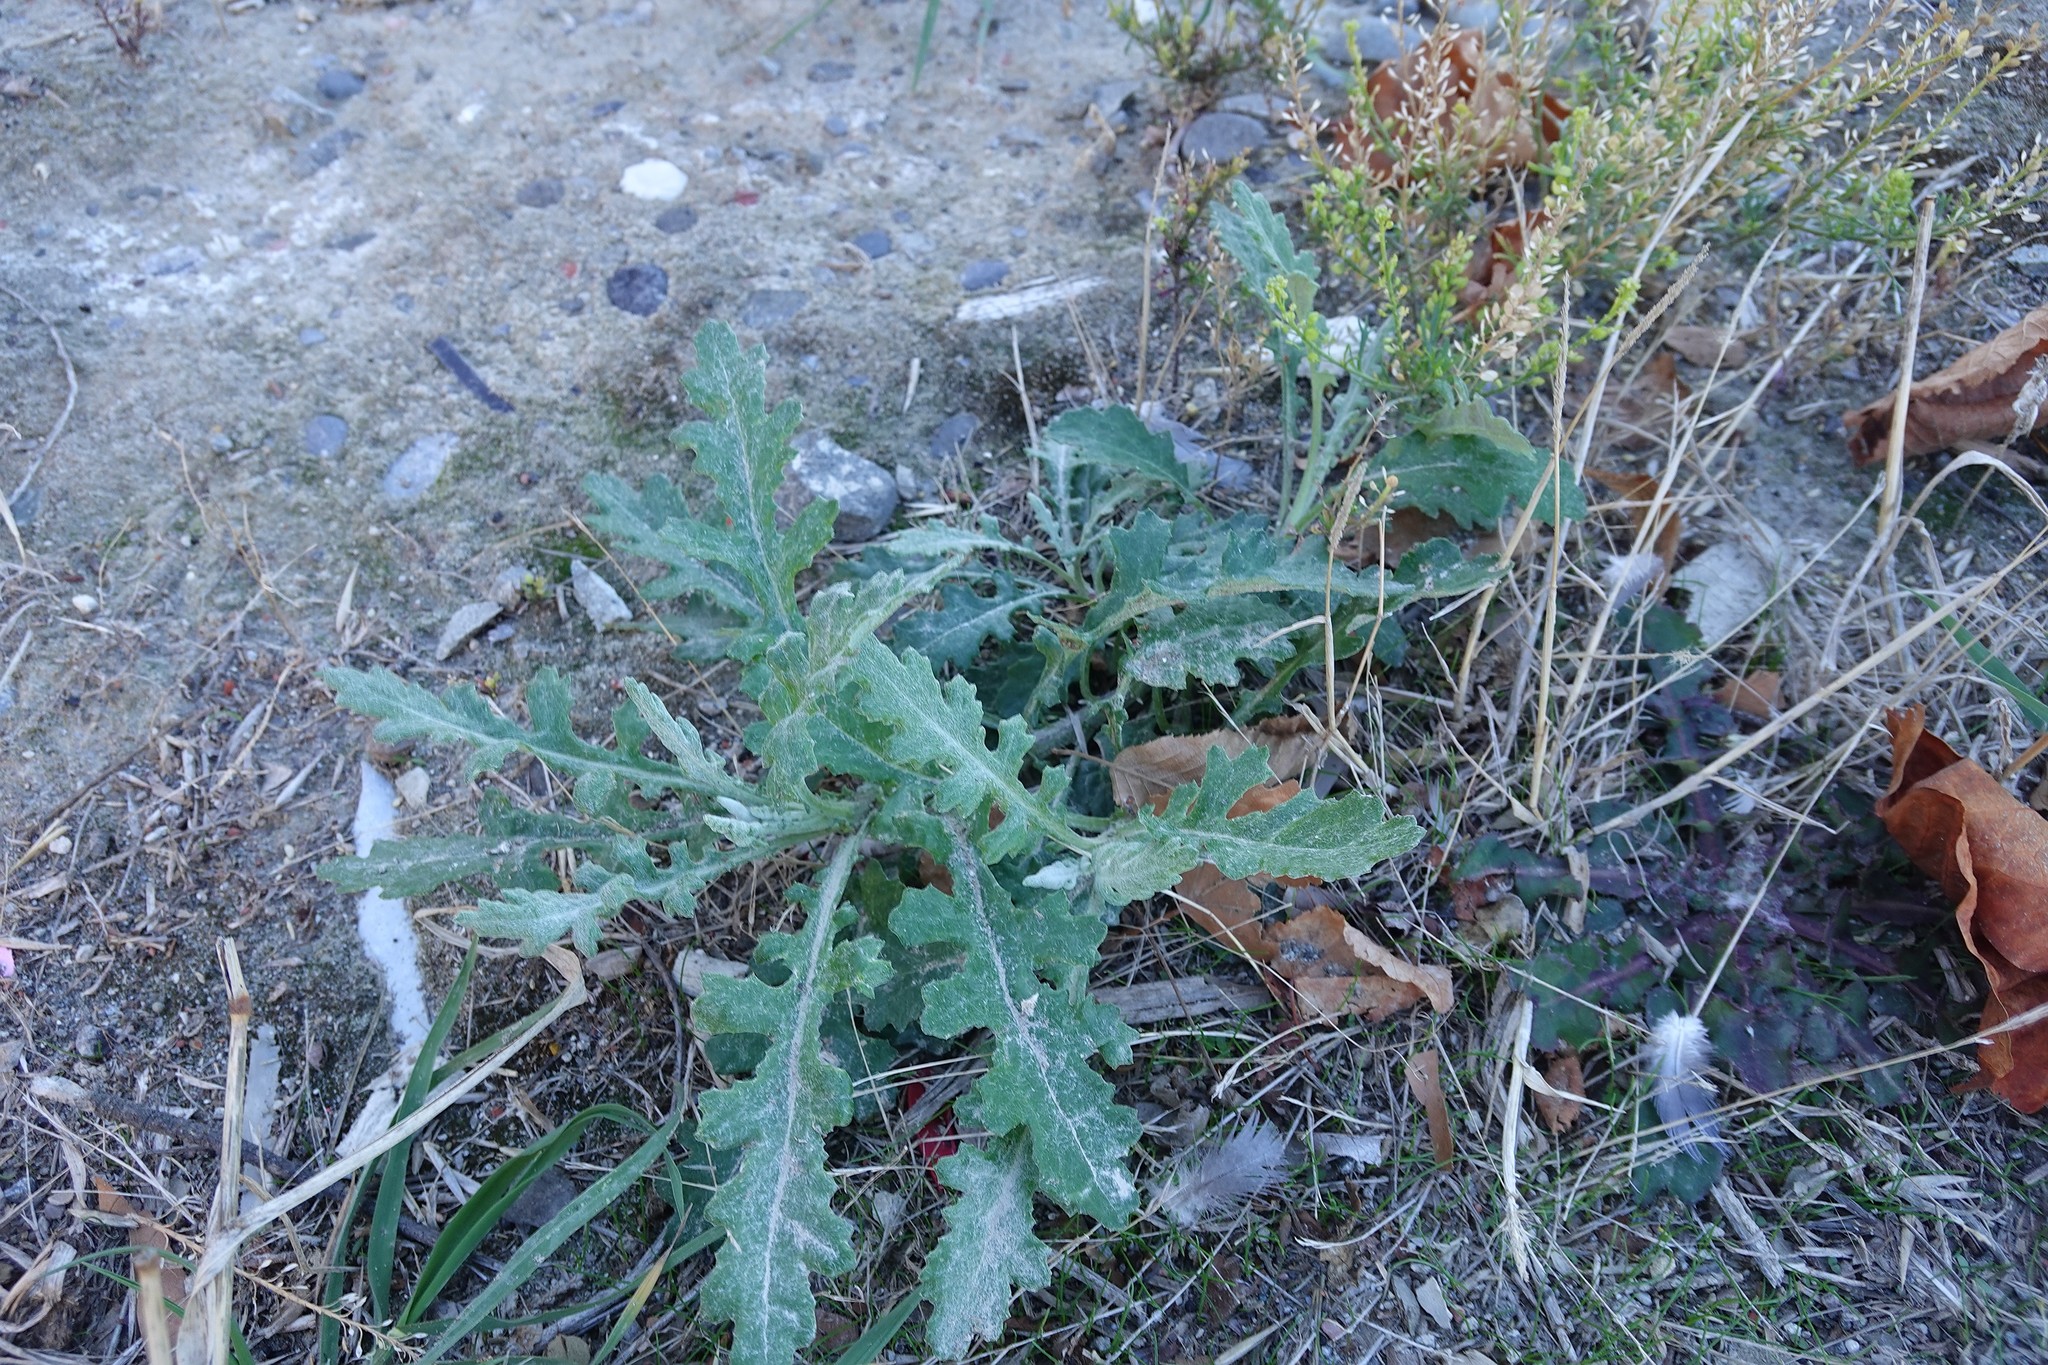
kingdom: Plantae
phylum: Tracheophyta
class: Magnoliopsida
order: Asterales
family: Asteraceae
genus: Senecio
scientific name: Senecio glomeratus
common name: Cutleaf burnweed
